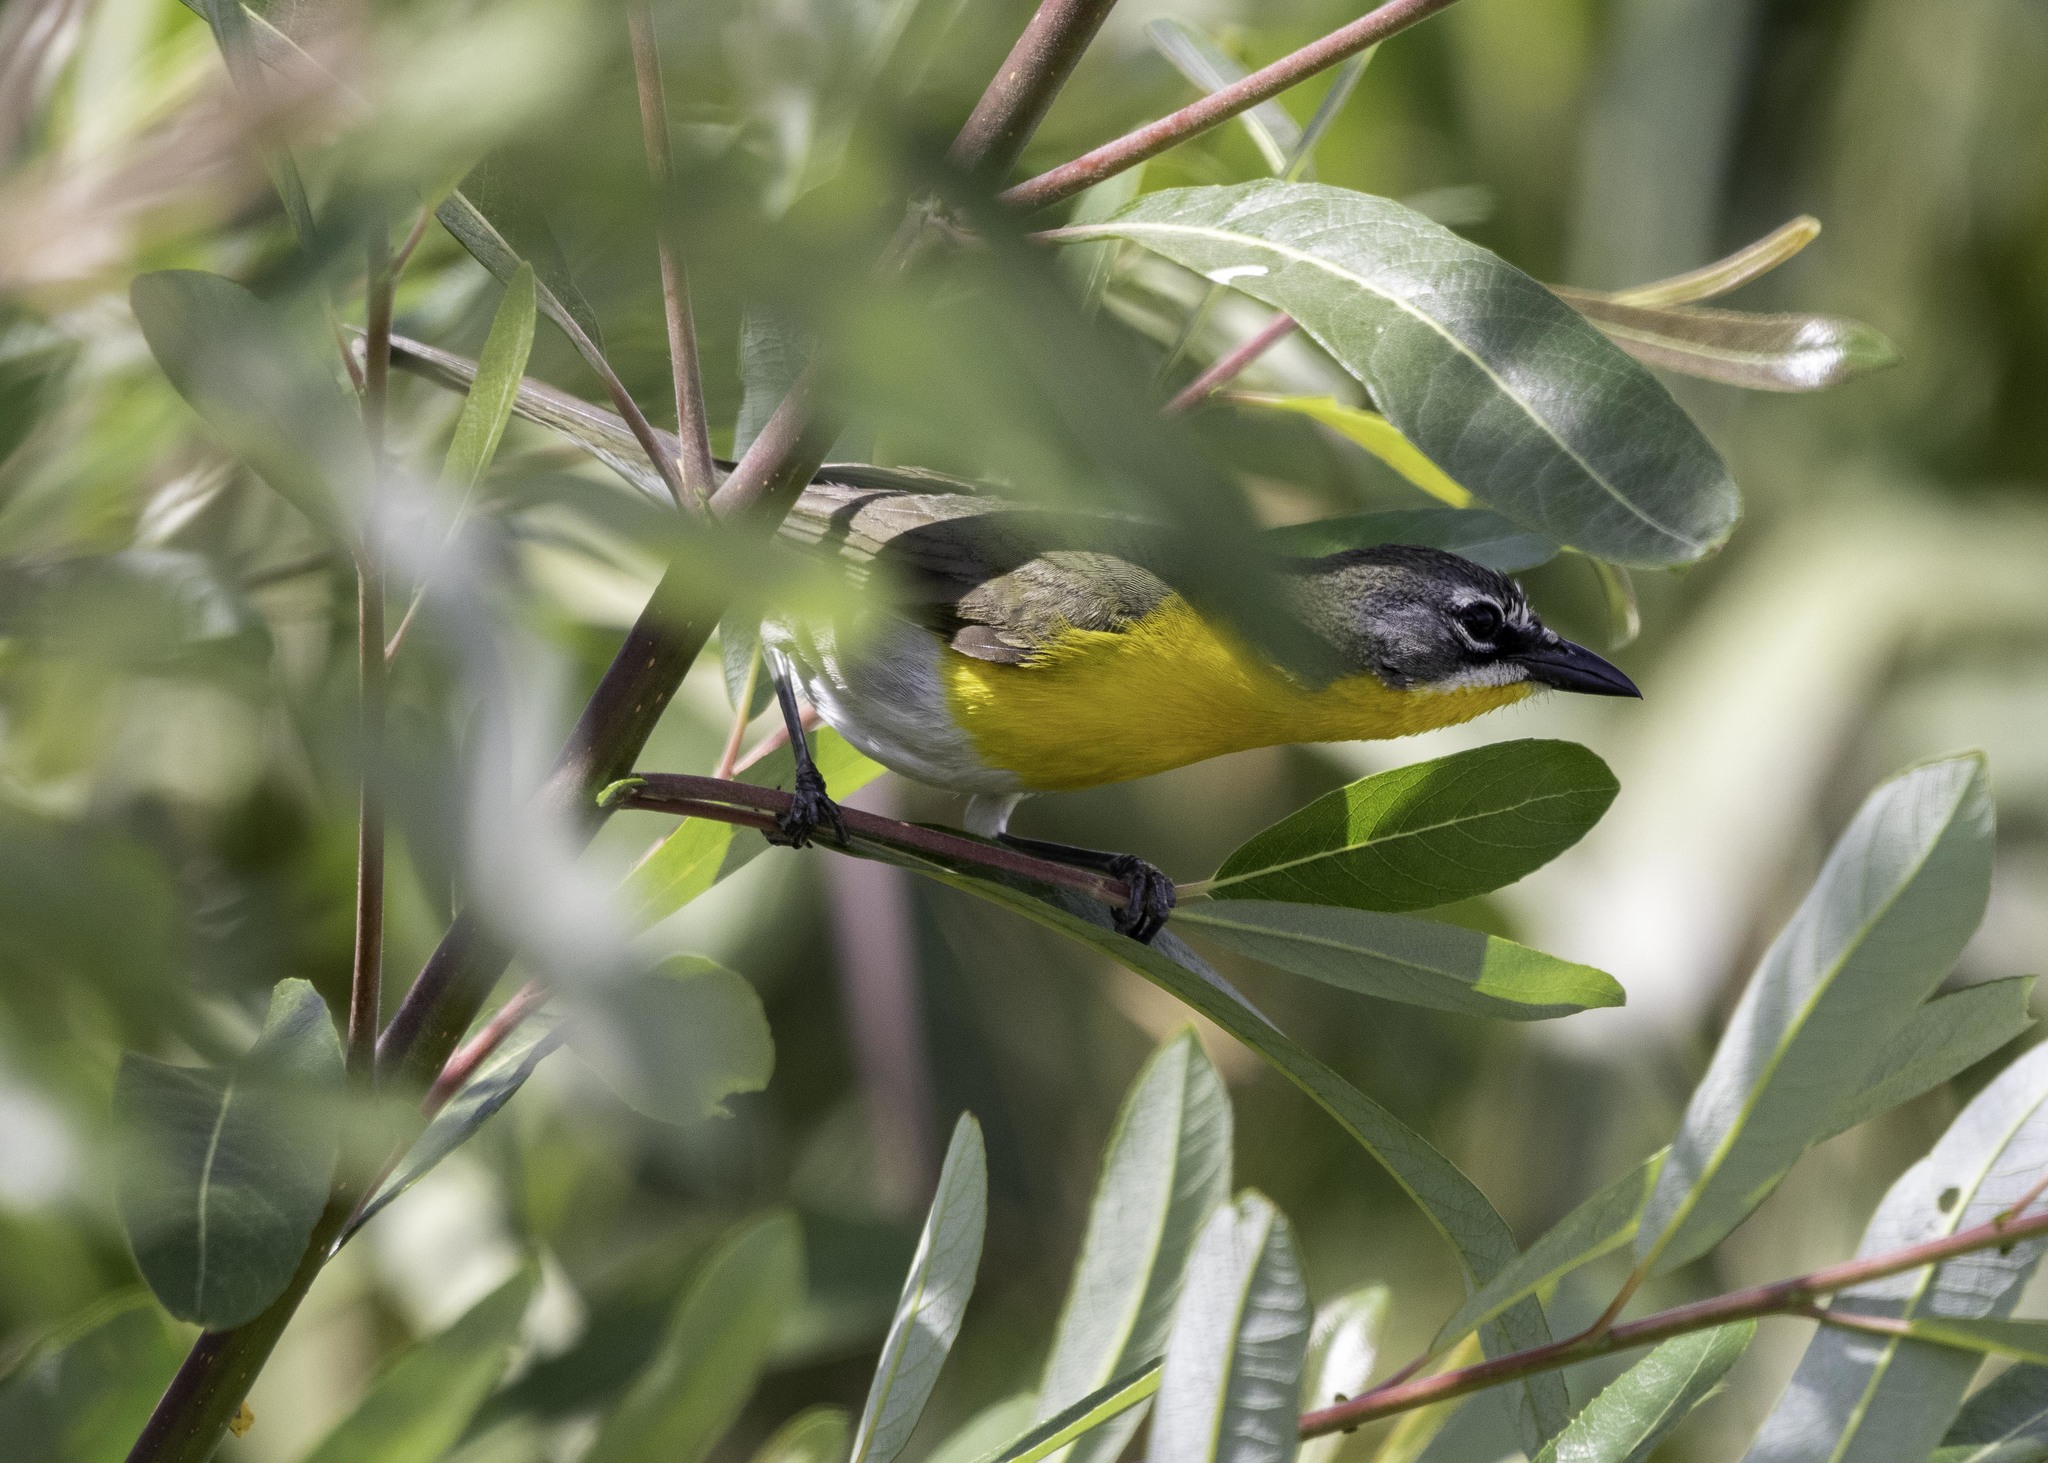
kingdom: Animalia
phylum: Chordata
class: Aves
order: Passeriformes
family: Parulidae
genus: Icteria
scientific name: Icteria virens
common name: Yellow-breasted chat
